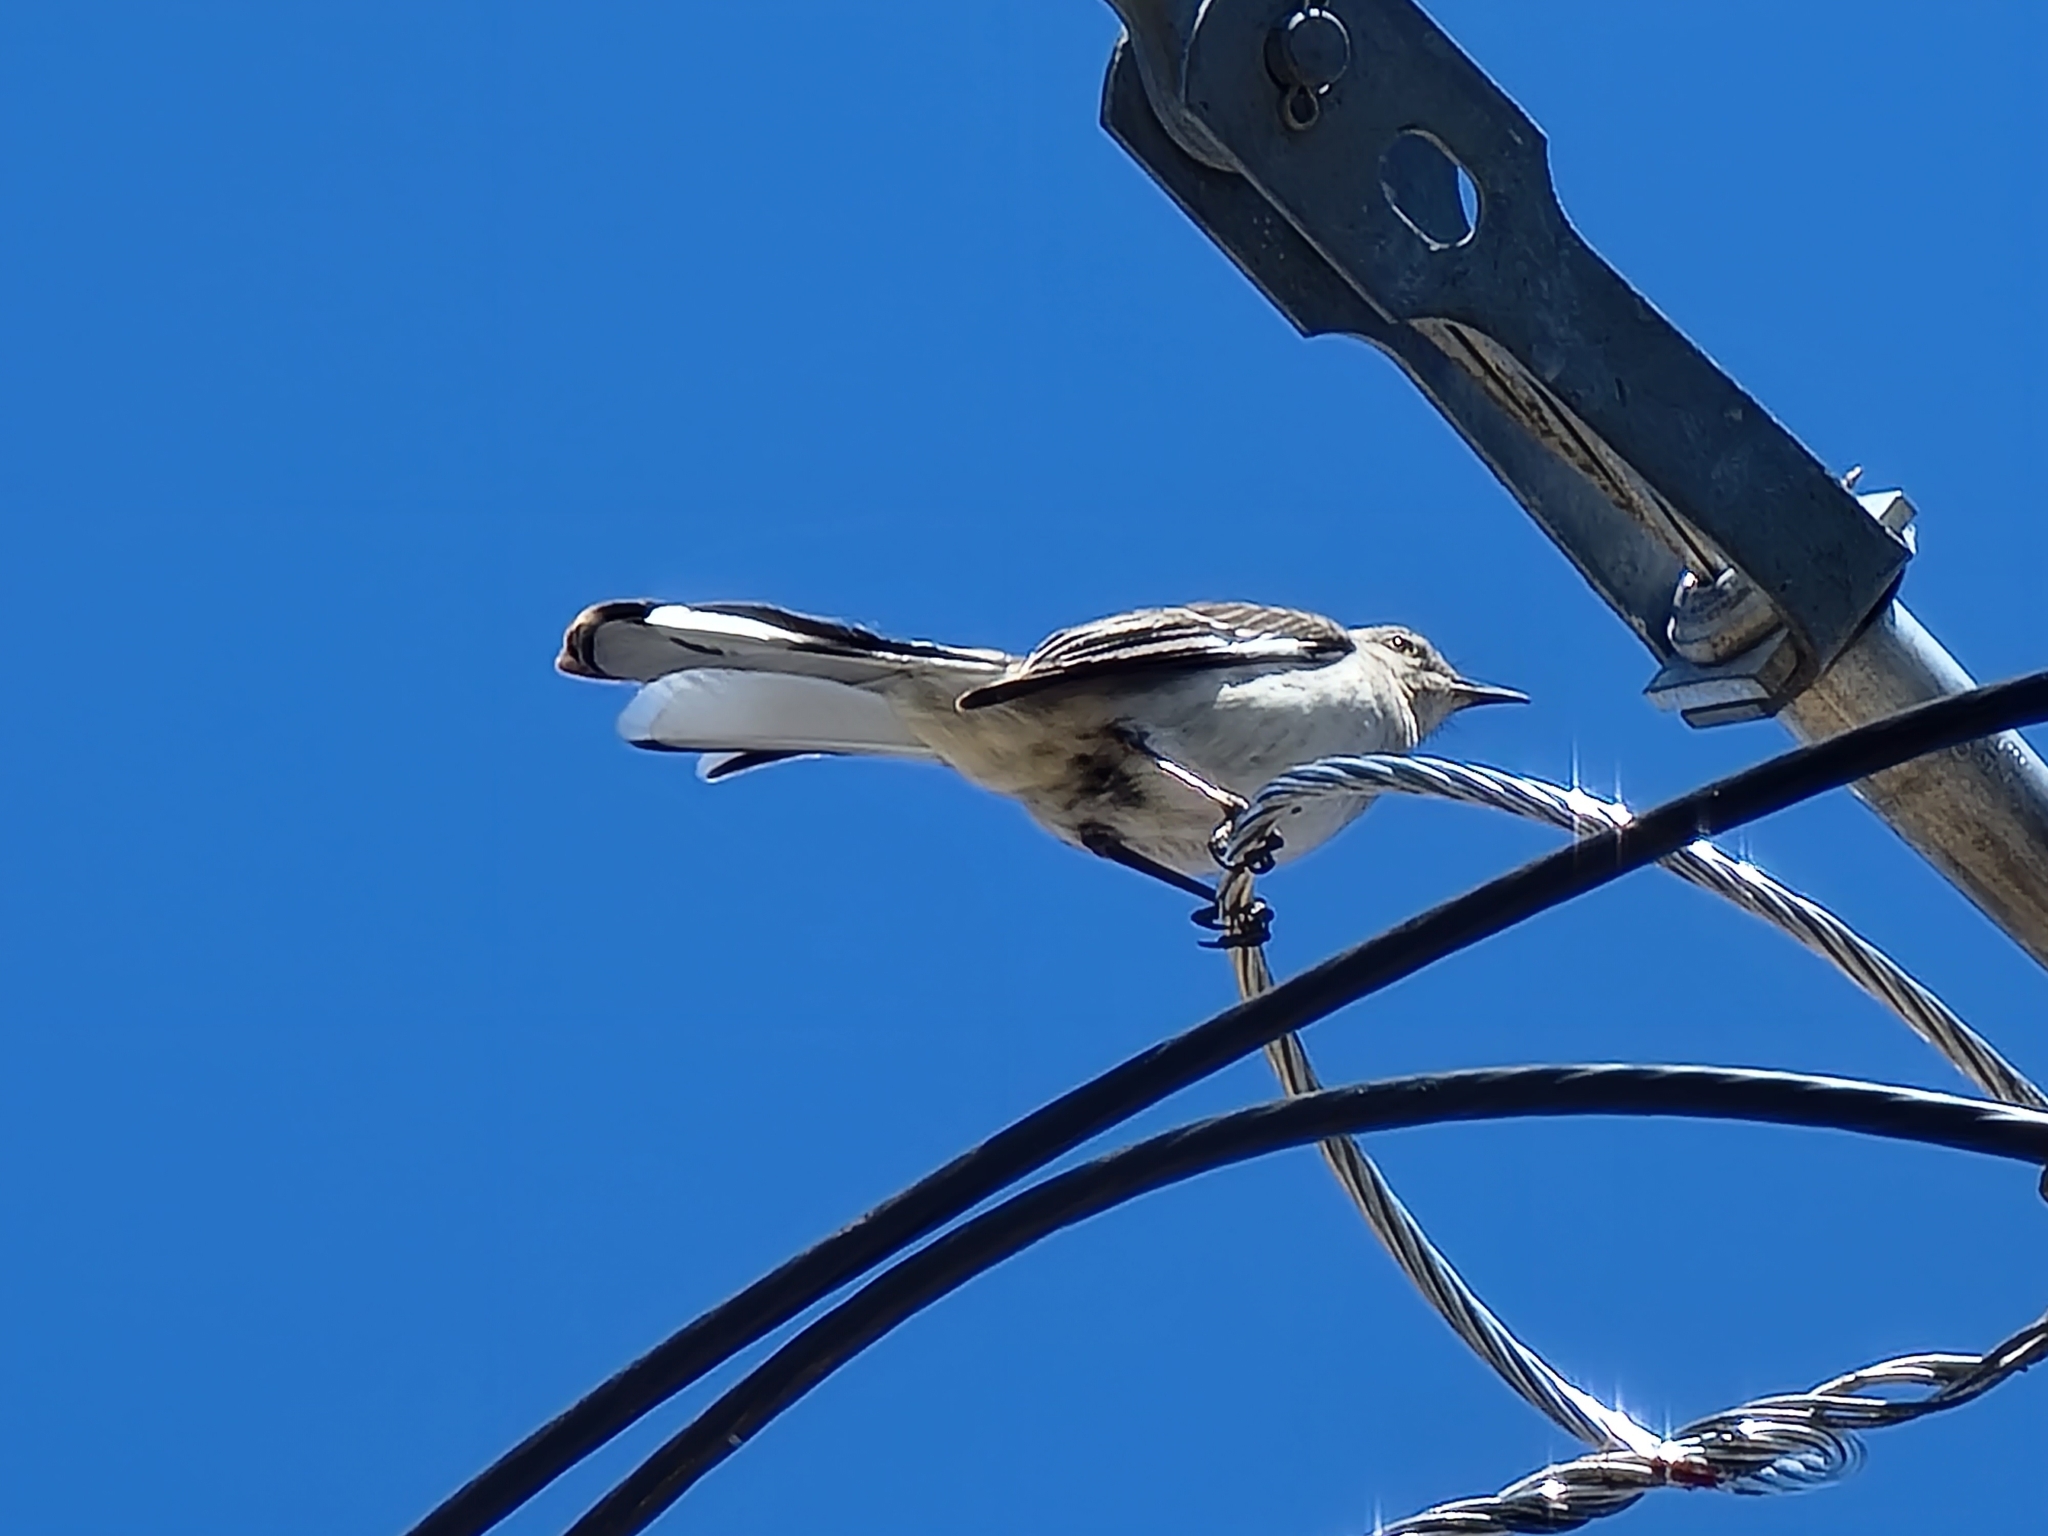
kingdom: Animalia
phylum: Chordata
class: Aves
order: Passeriformes
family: Mimidae
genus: Mimus
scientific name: Mimus polyglottos
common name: Northern mockingbird
